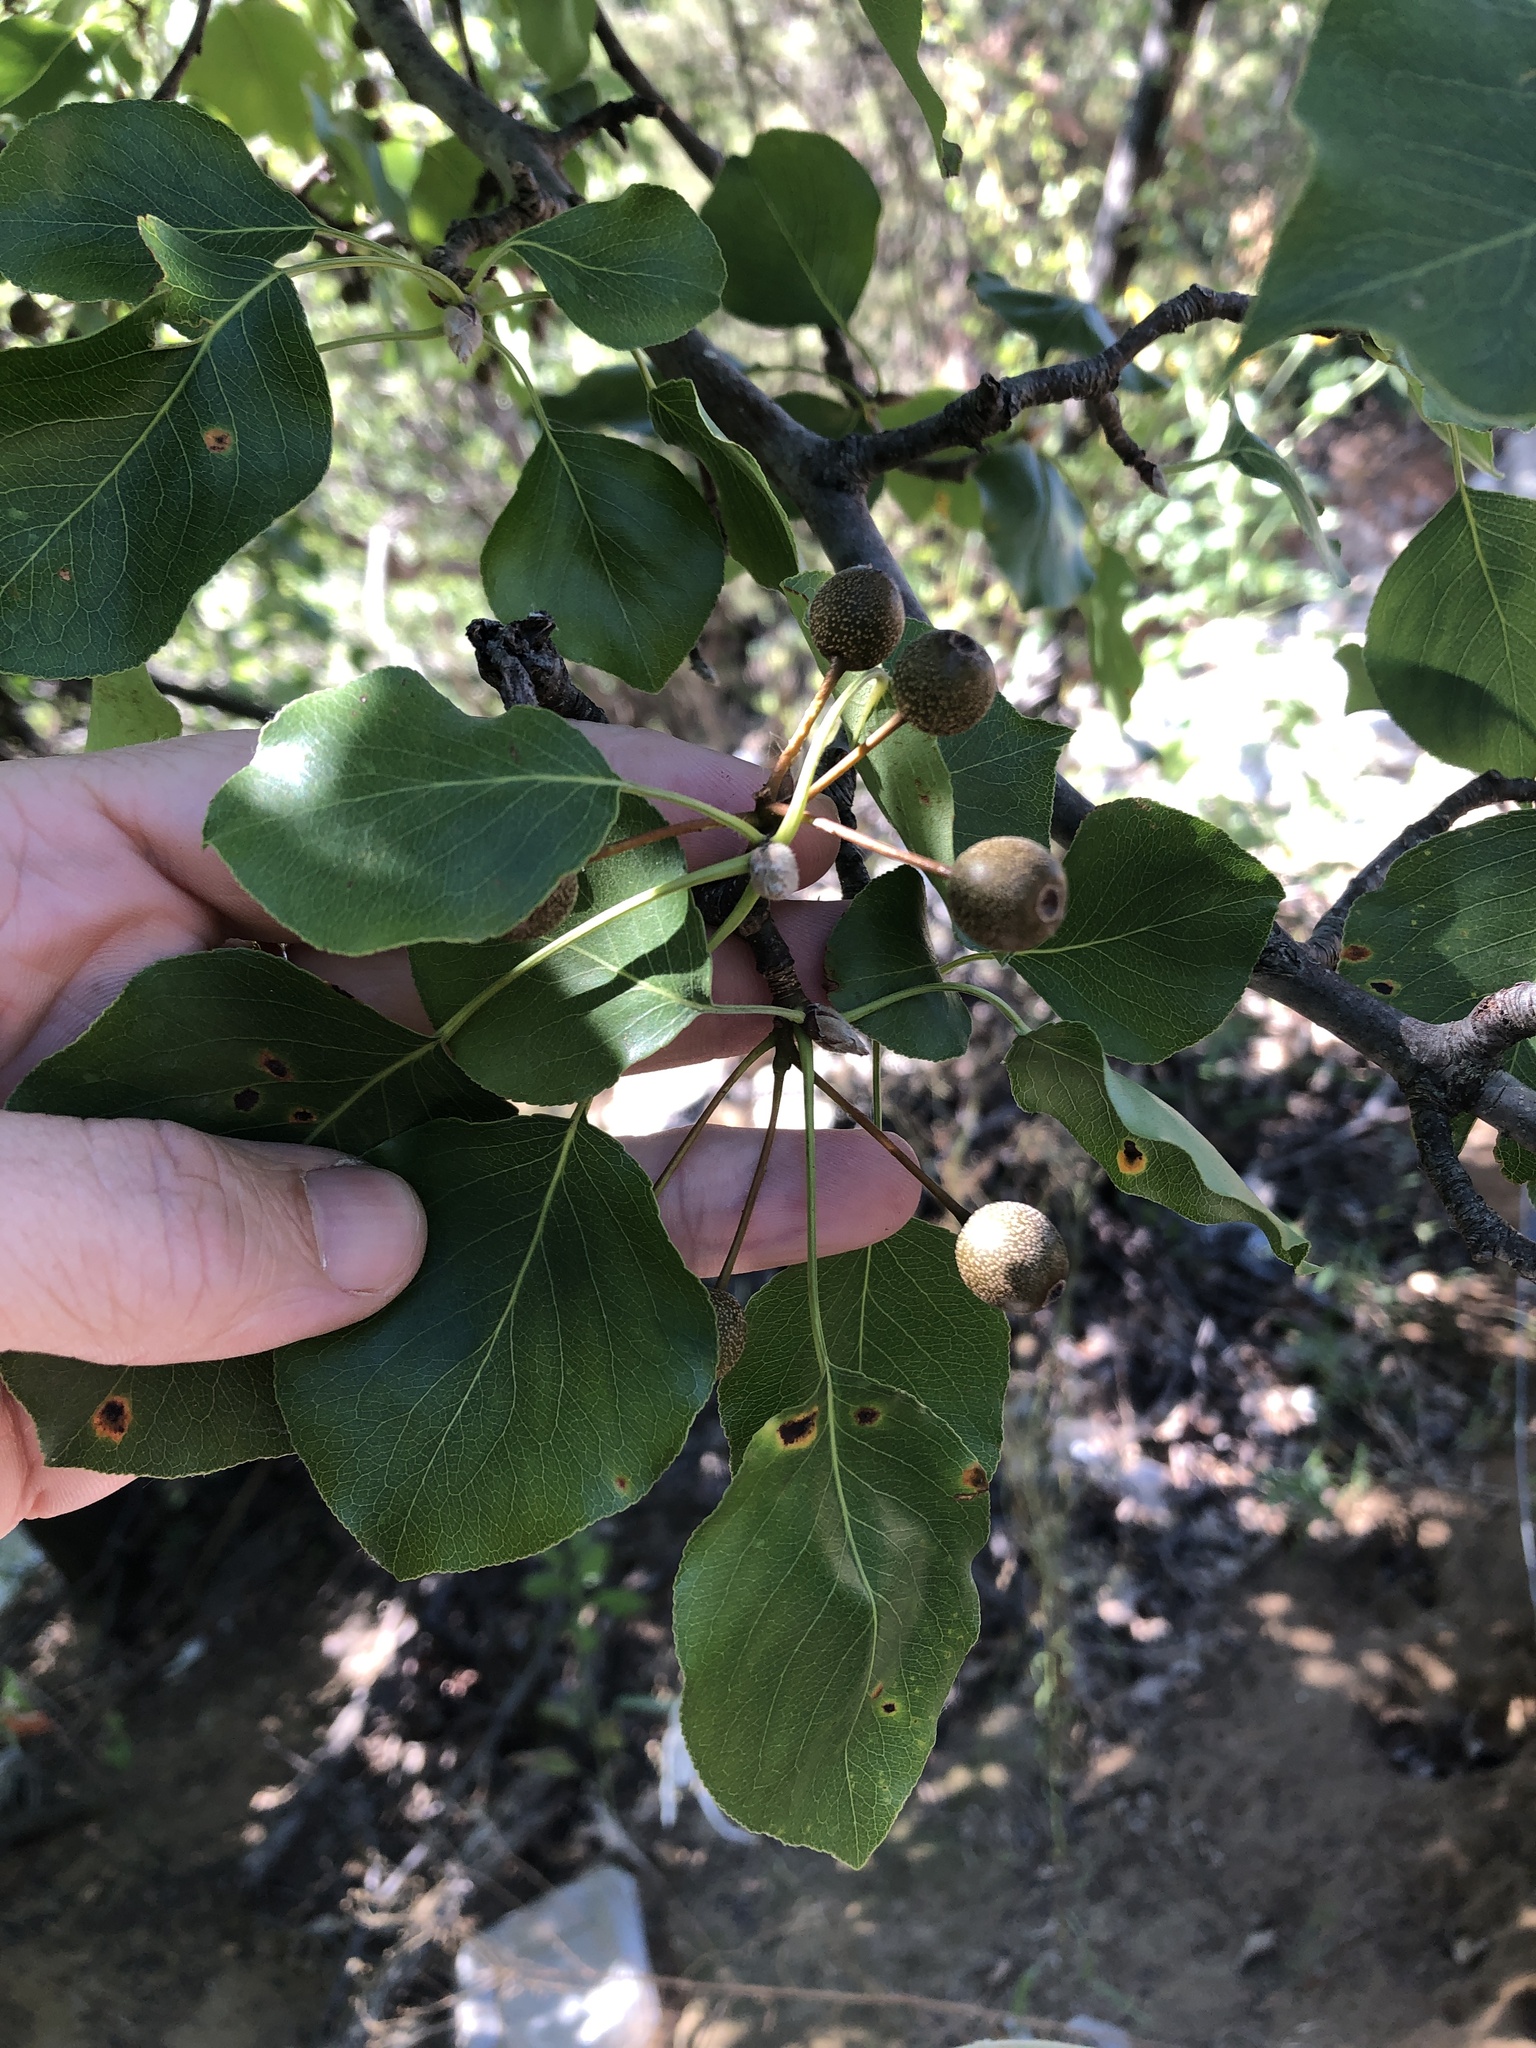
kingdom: Plantae
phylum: Tracheophyta
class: Magnoliopsida
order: Rosales
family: Rosaceae
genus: Pyrus
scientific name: Pyrus calleryana
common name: Callery pear
